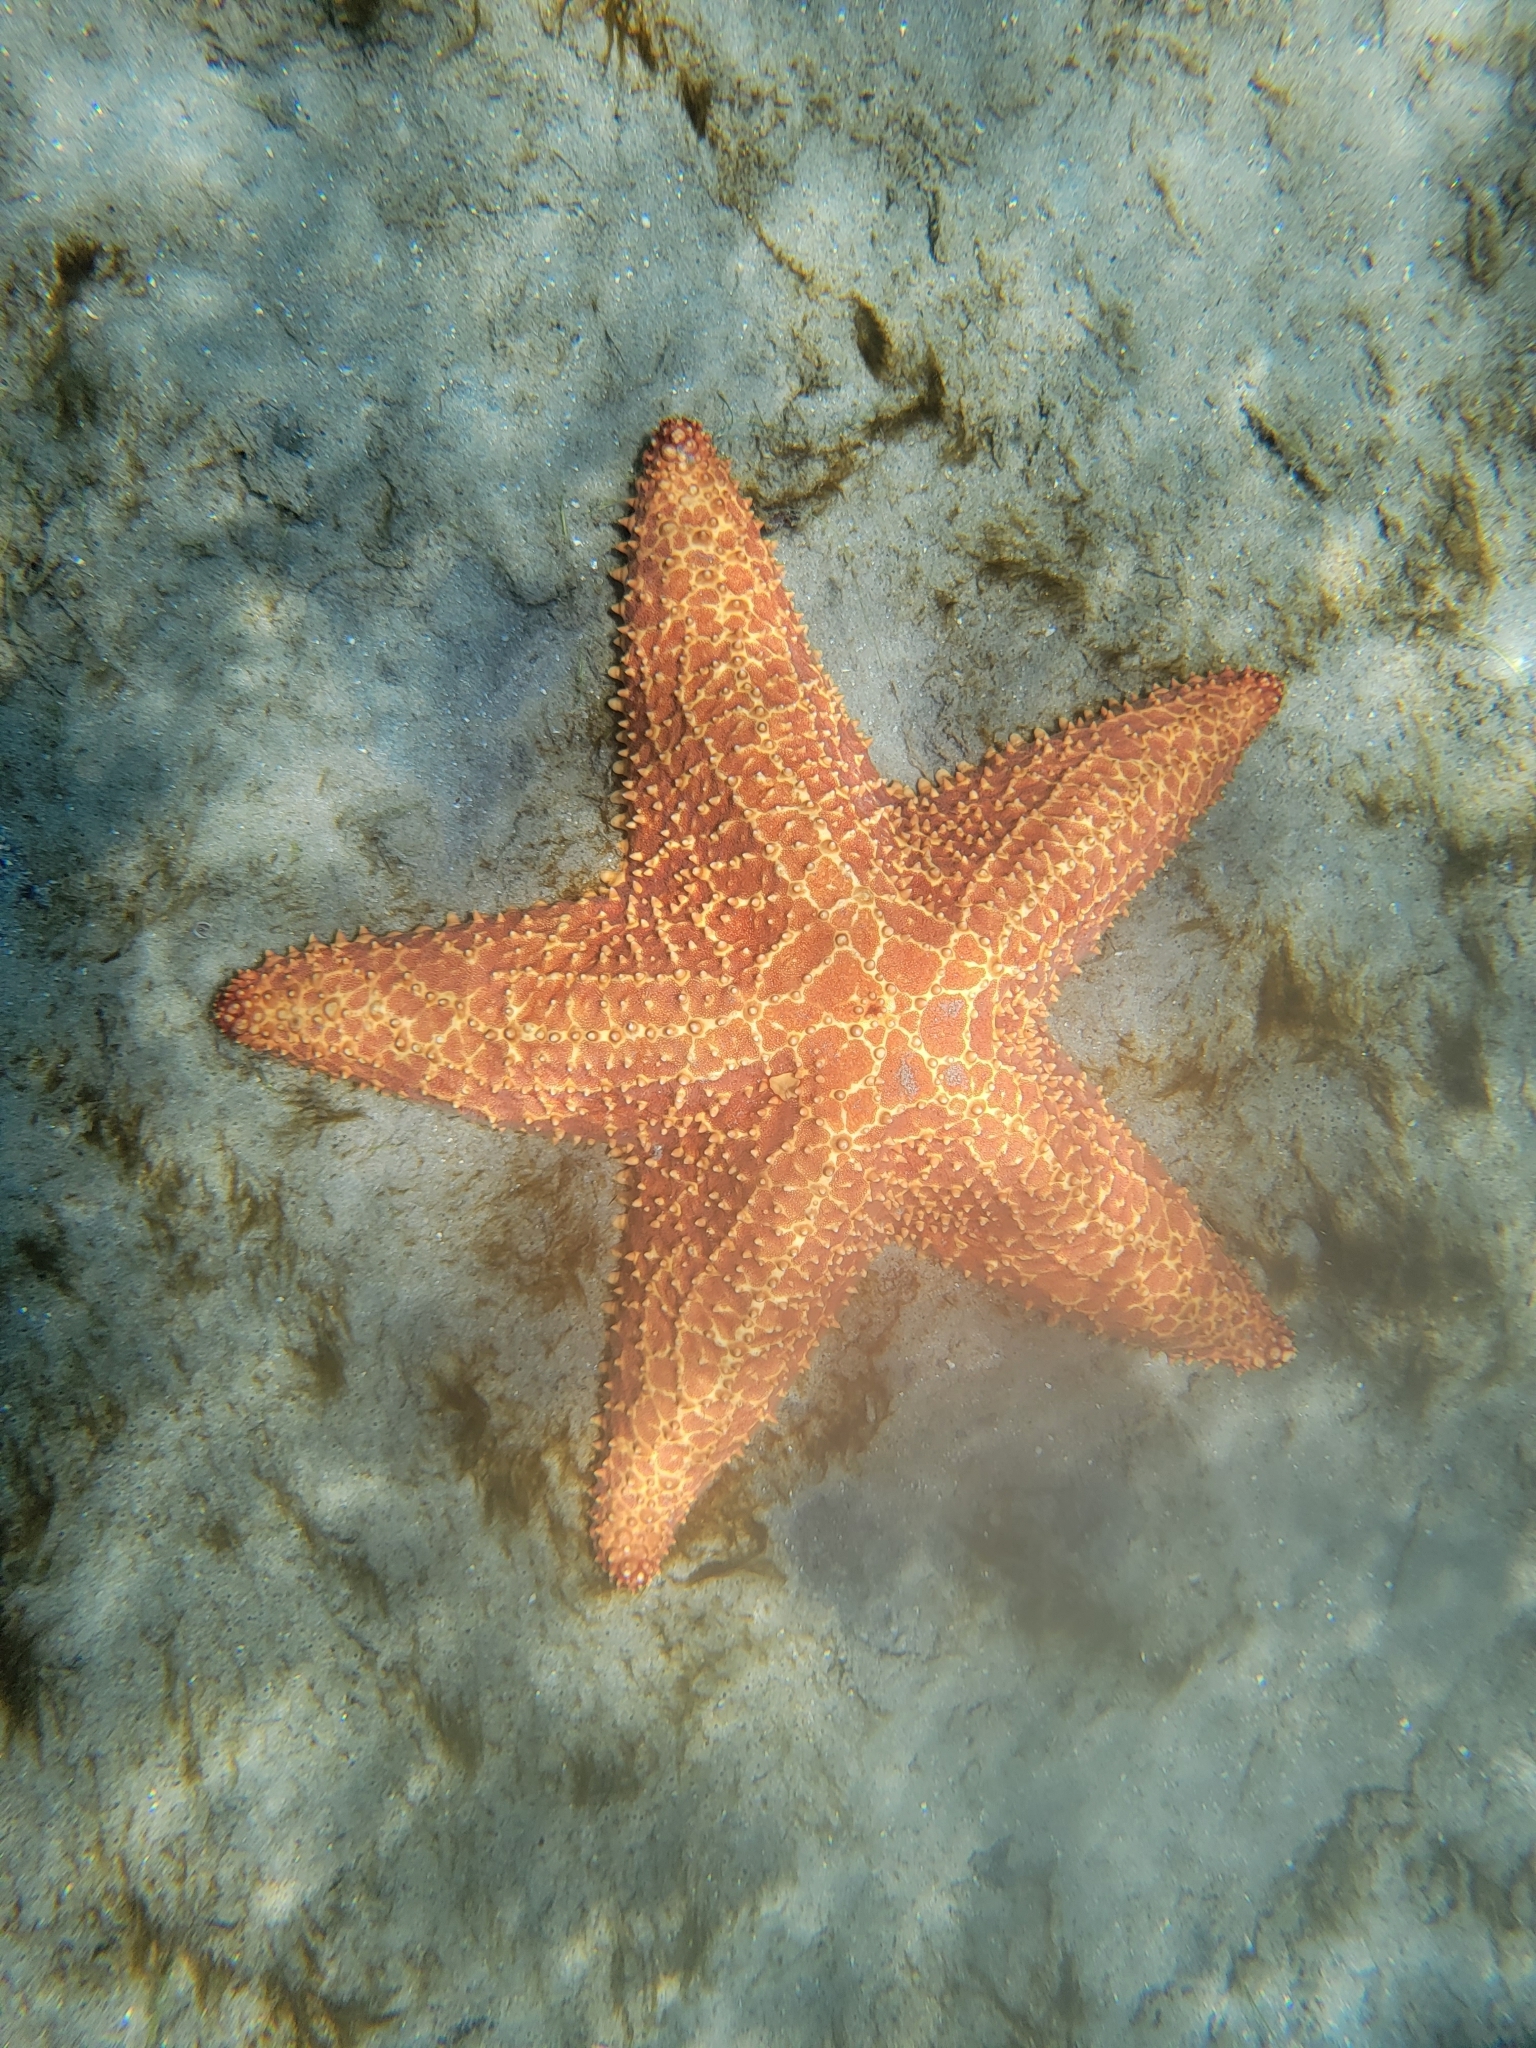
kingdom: Animalia
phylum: Echinodermata
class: Asteroidea
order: Valvatida
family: Oreasteridae
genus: Oreaster
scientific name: Oreaster reticulatus
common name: Cushion sea star
